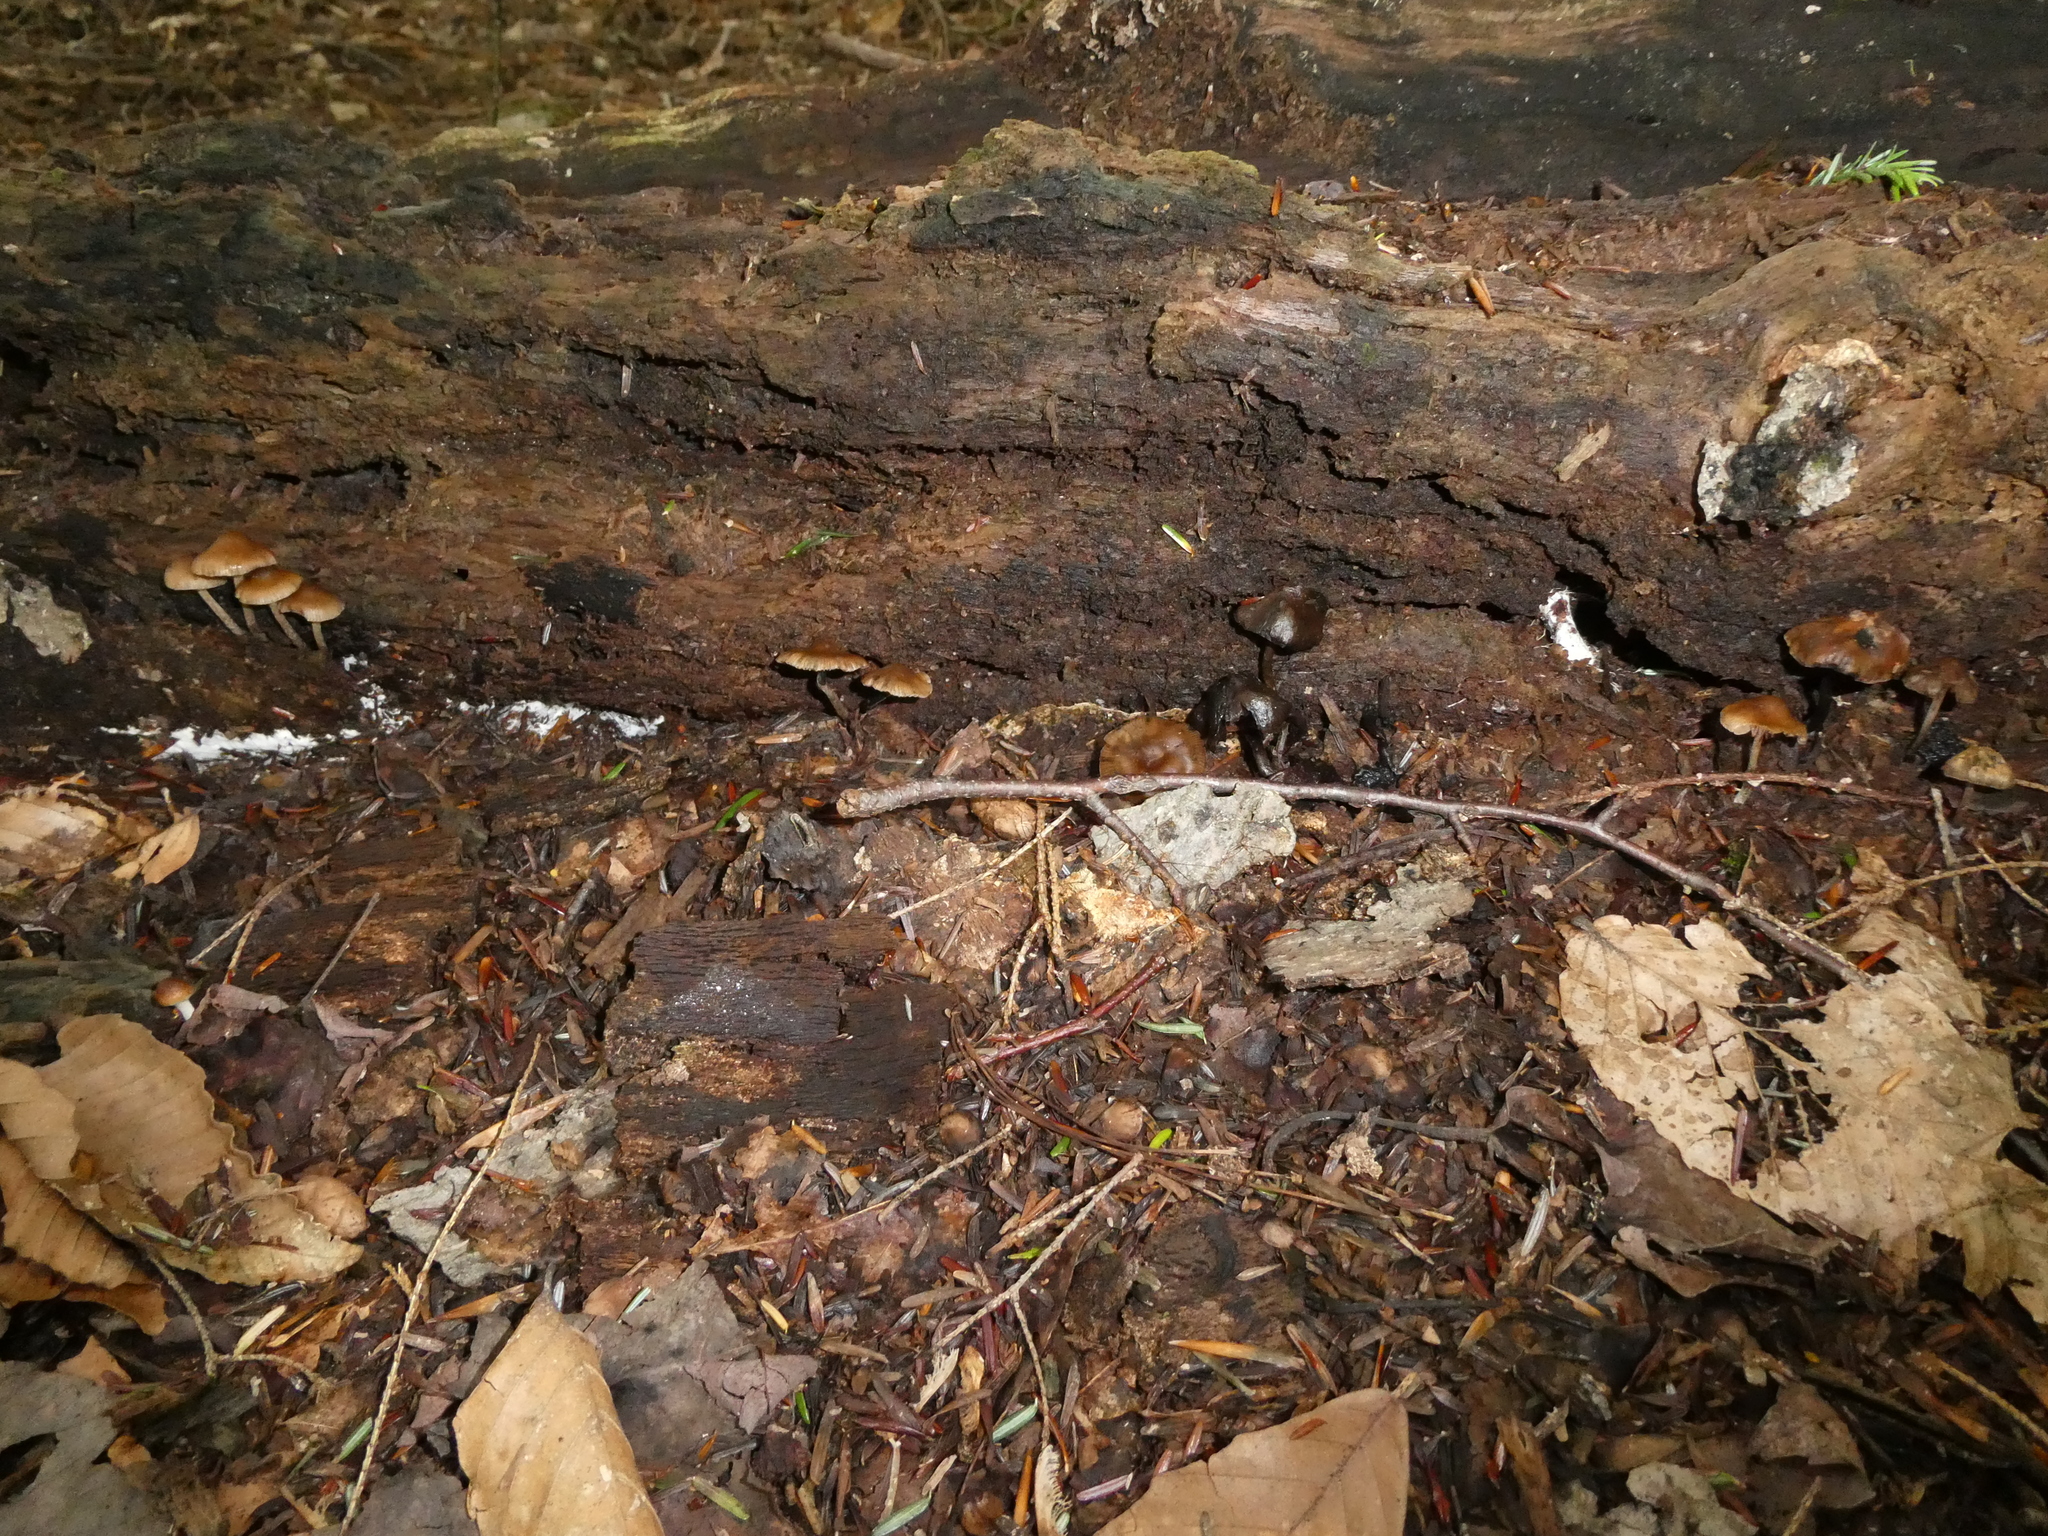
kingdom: Fungi
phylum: Basidiomycota
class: Agaricomycetes
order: Agaricales
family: Hymenogastraceae
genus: Psilocybe
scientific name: Psilocybe caerulipes
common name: Blue-foot
